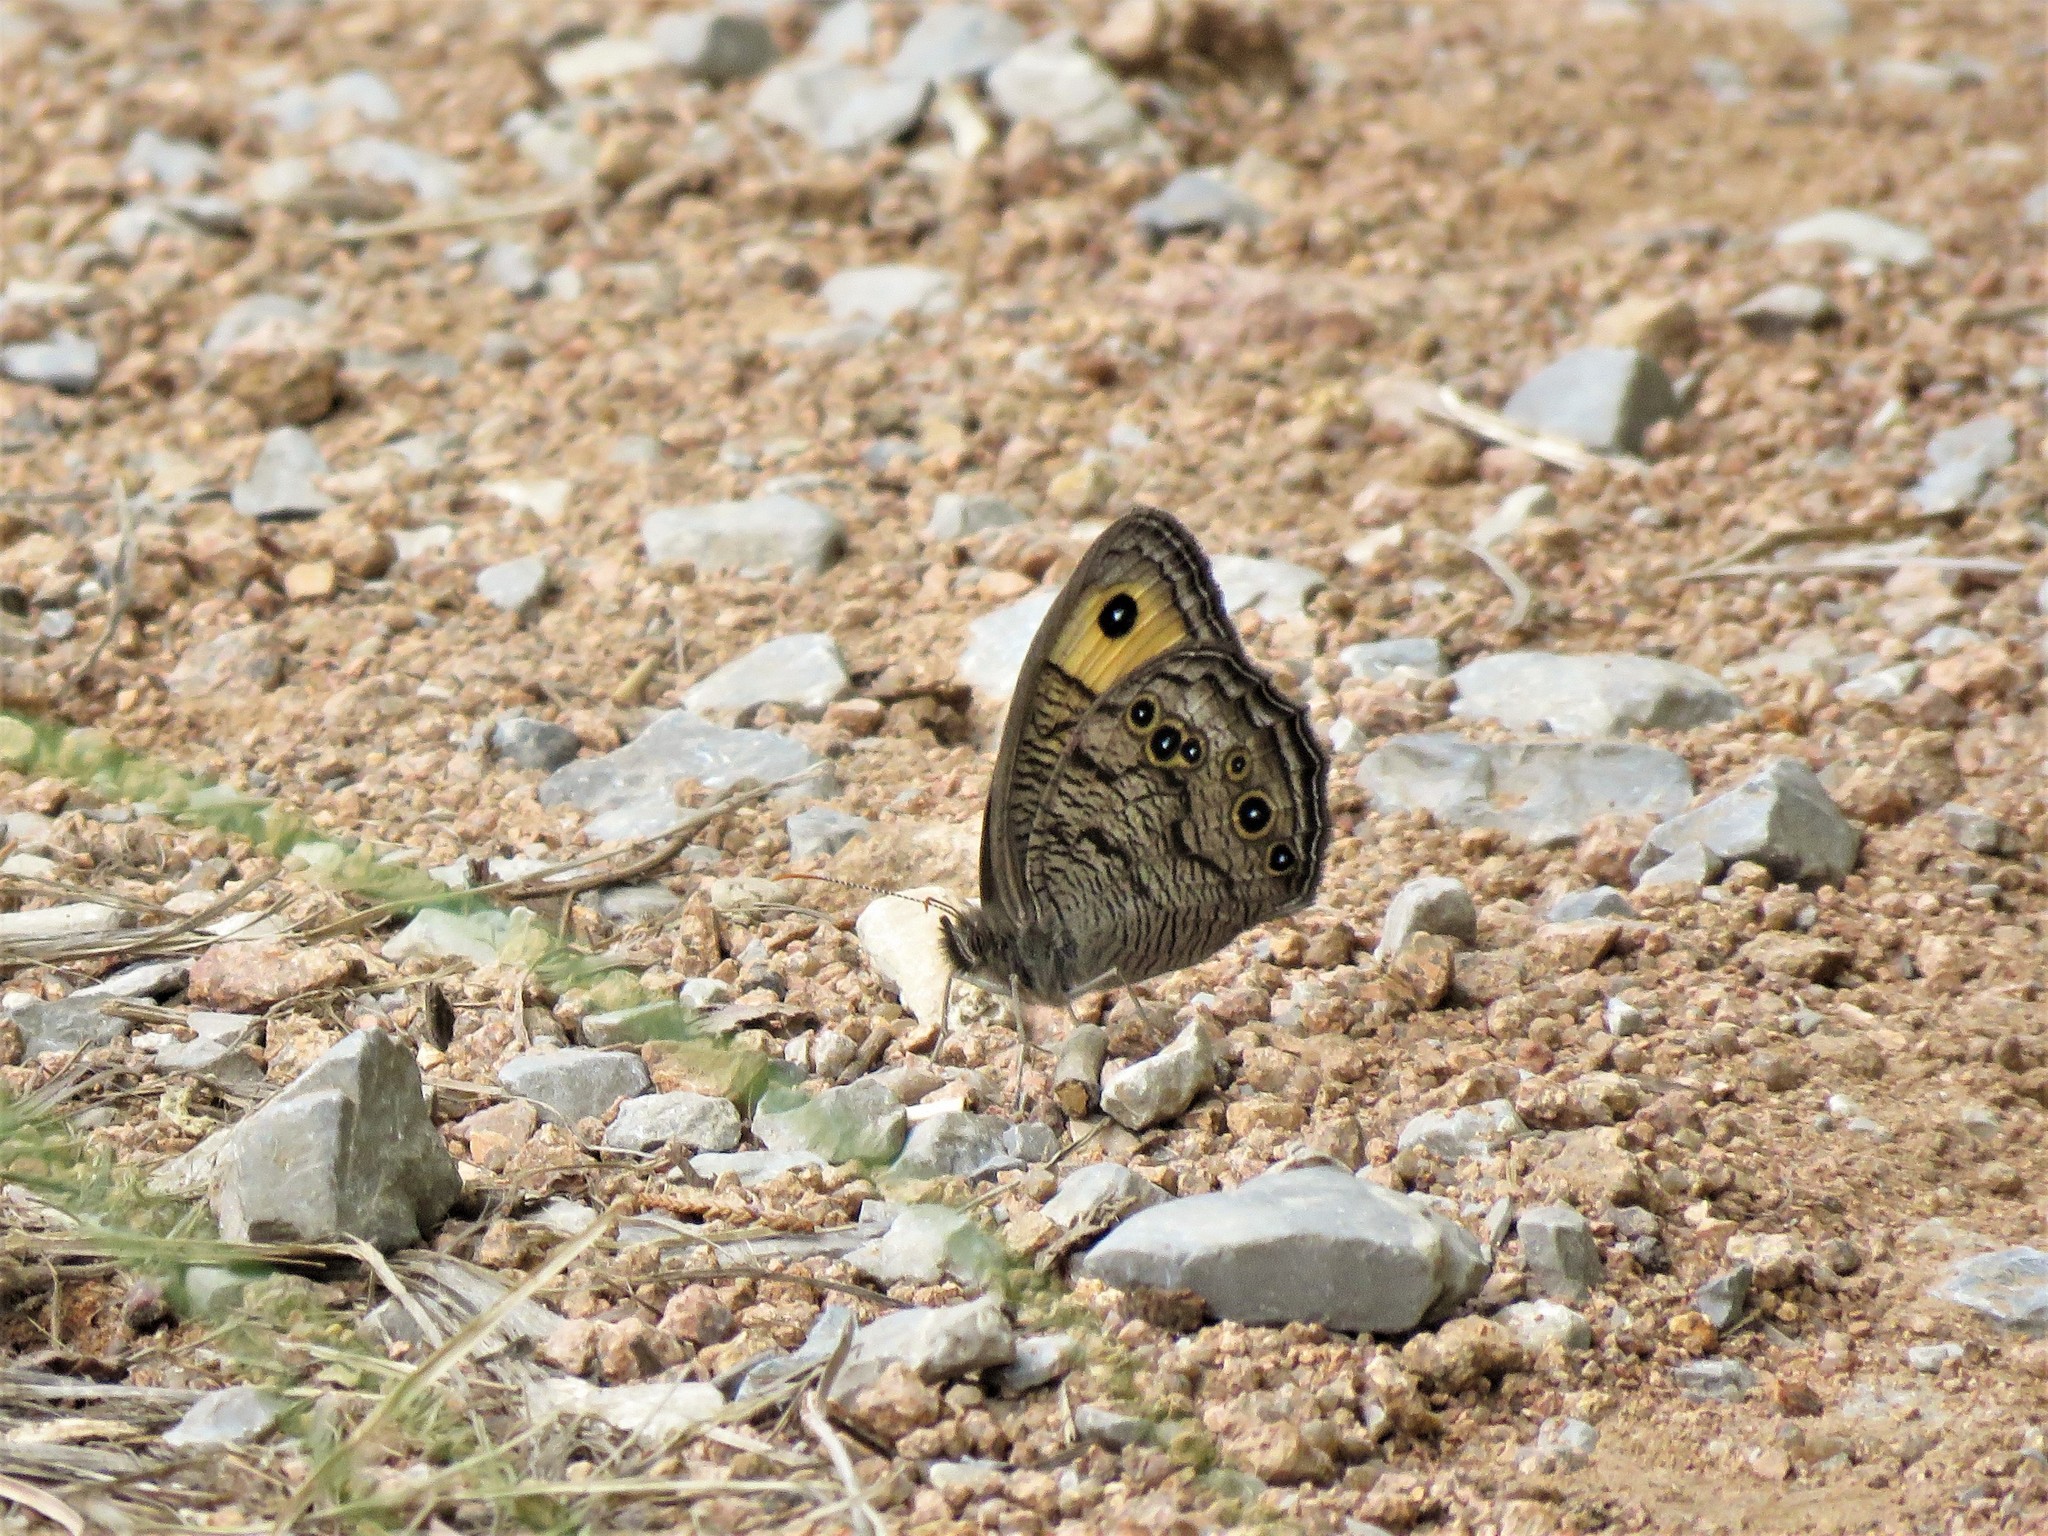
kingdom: Animalia
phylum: Arthropoda
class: Insecta
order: Lepidoptera
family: Nymphalidae
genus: Cercyonis
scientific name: Cercyonis pegala
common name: Common wood-nymph
